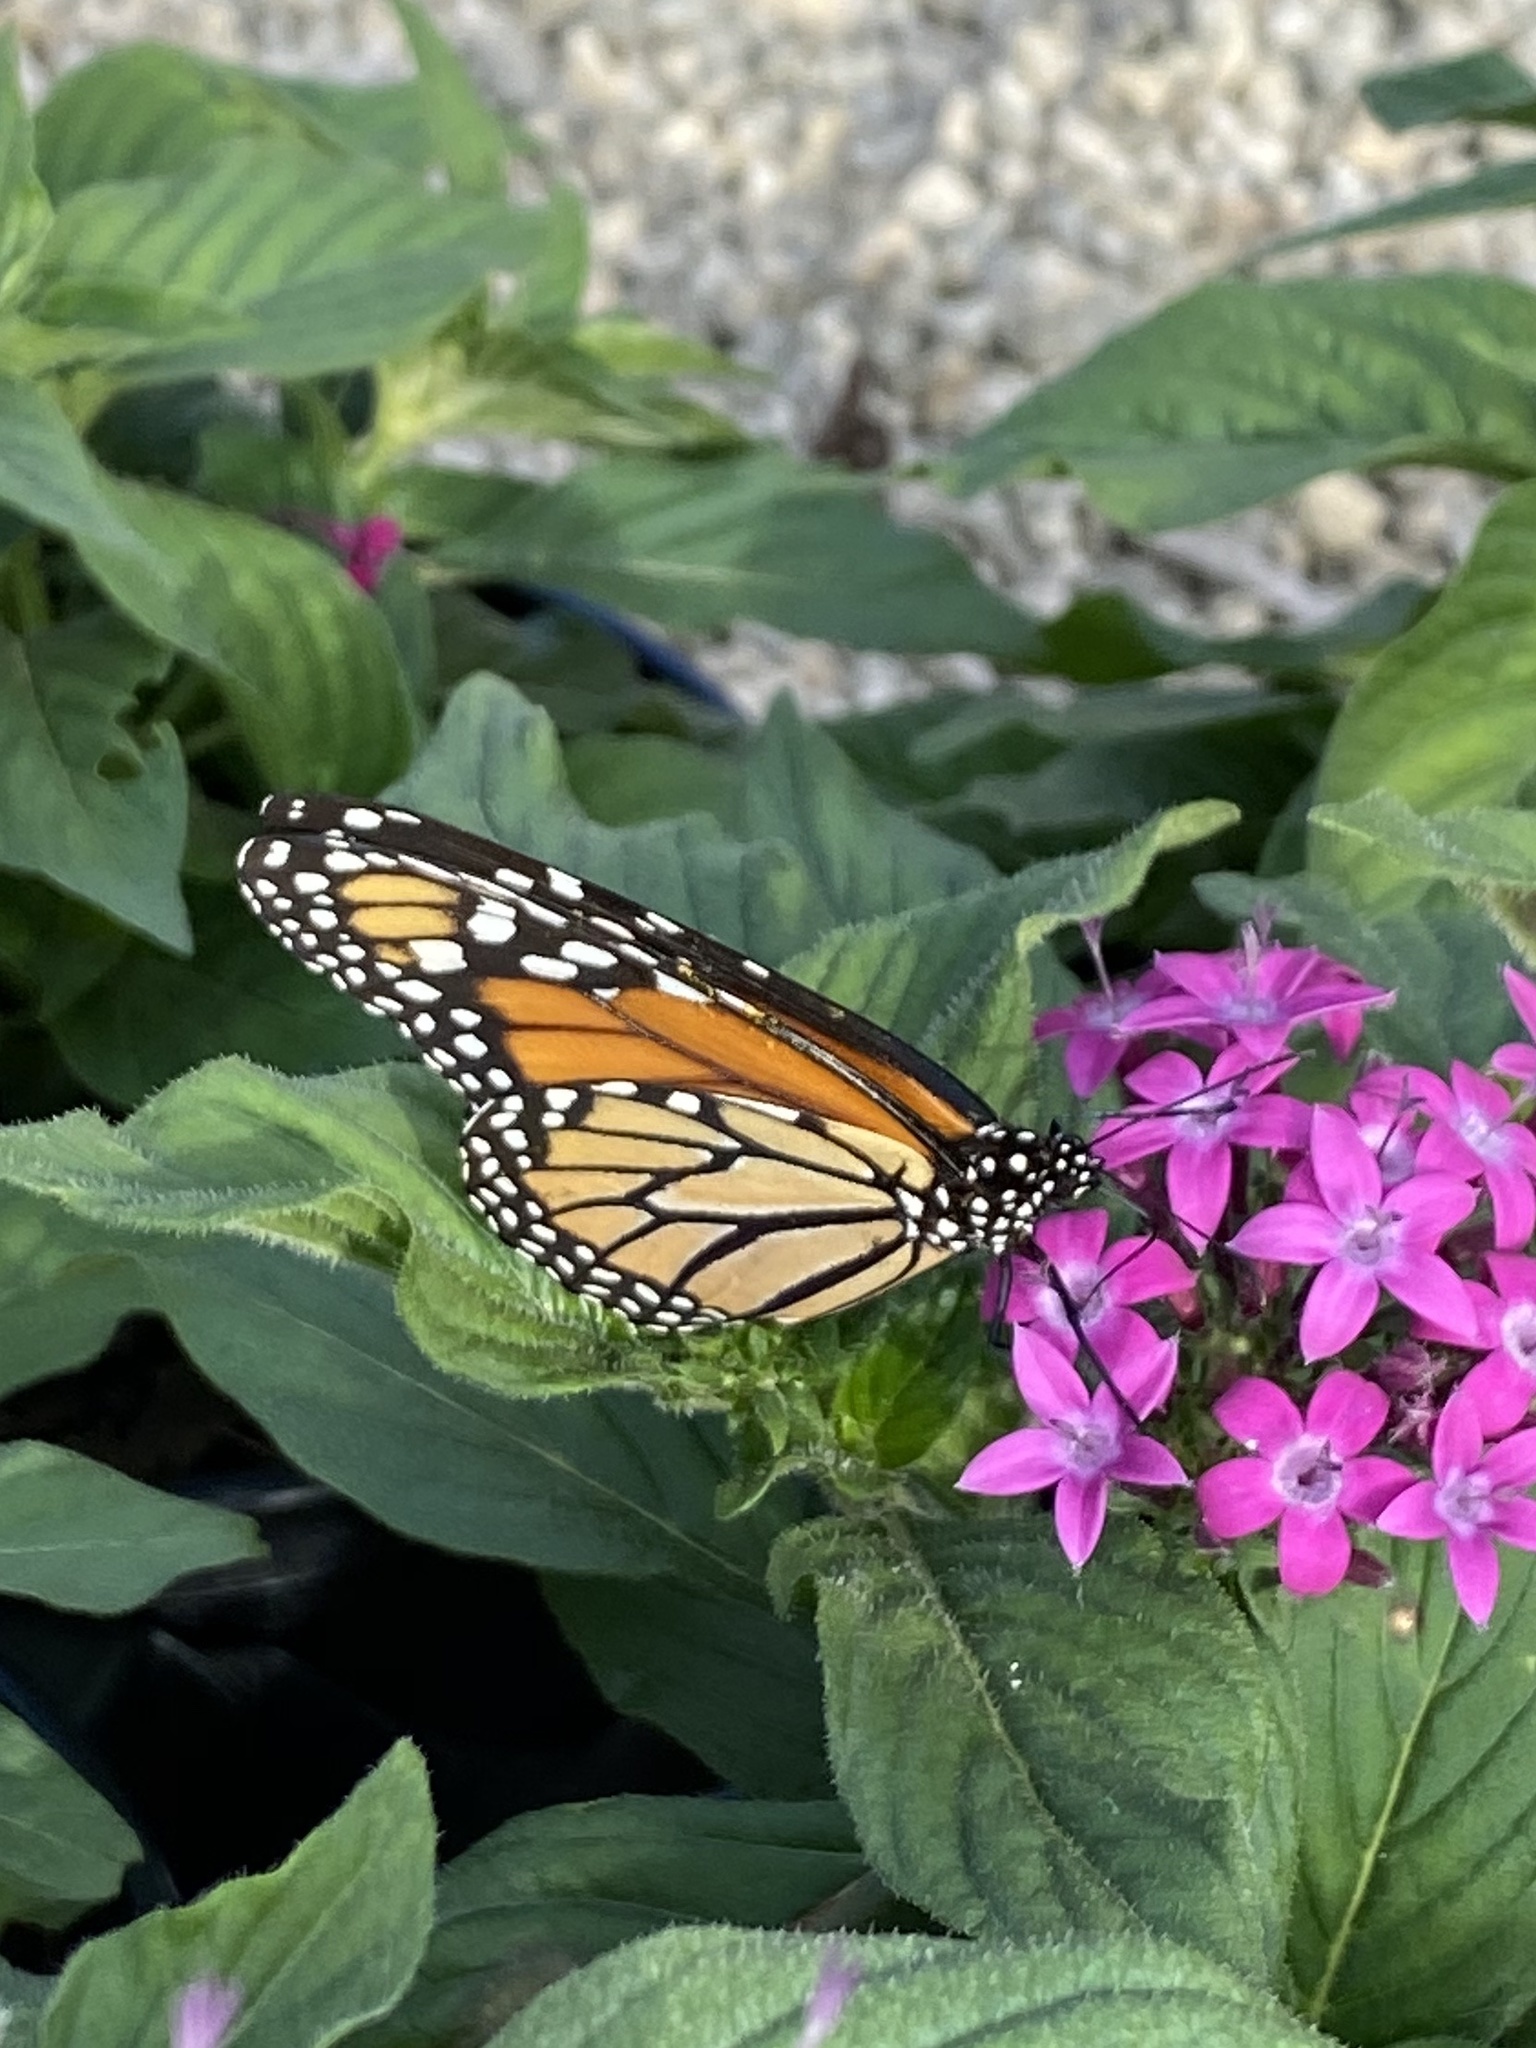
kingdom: Animalia
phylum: Arthropoda
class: Insecta
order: Lepidoptera
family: Nymphalidae
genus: Danaus
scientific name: Danaus plexippus
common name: Monarch
